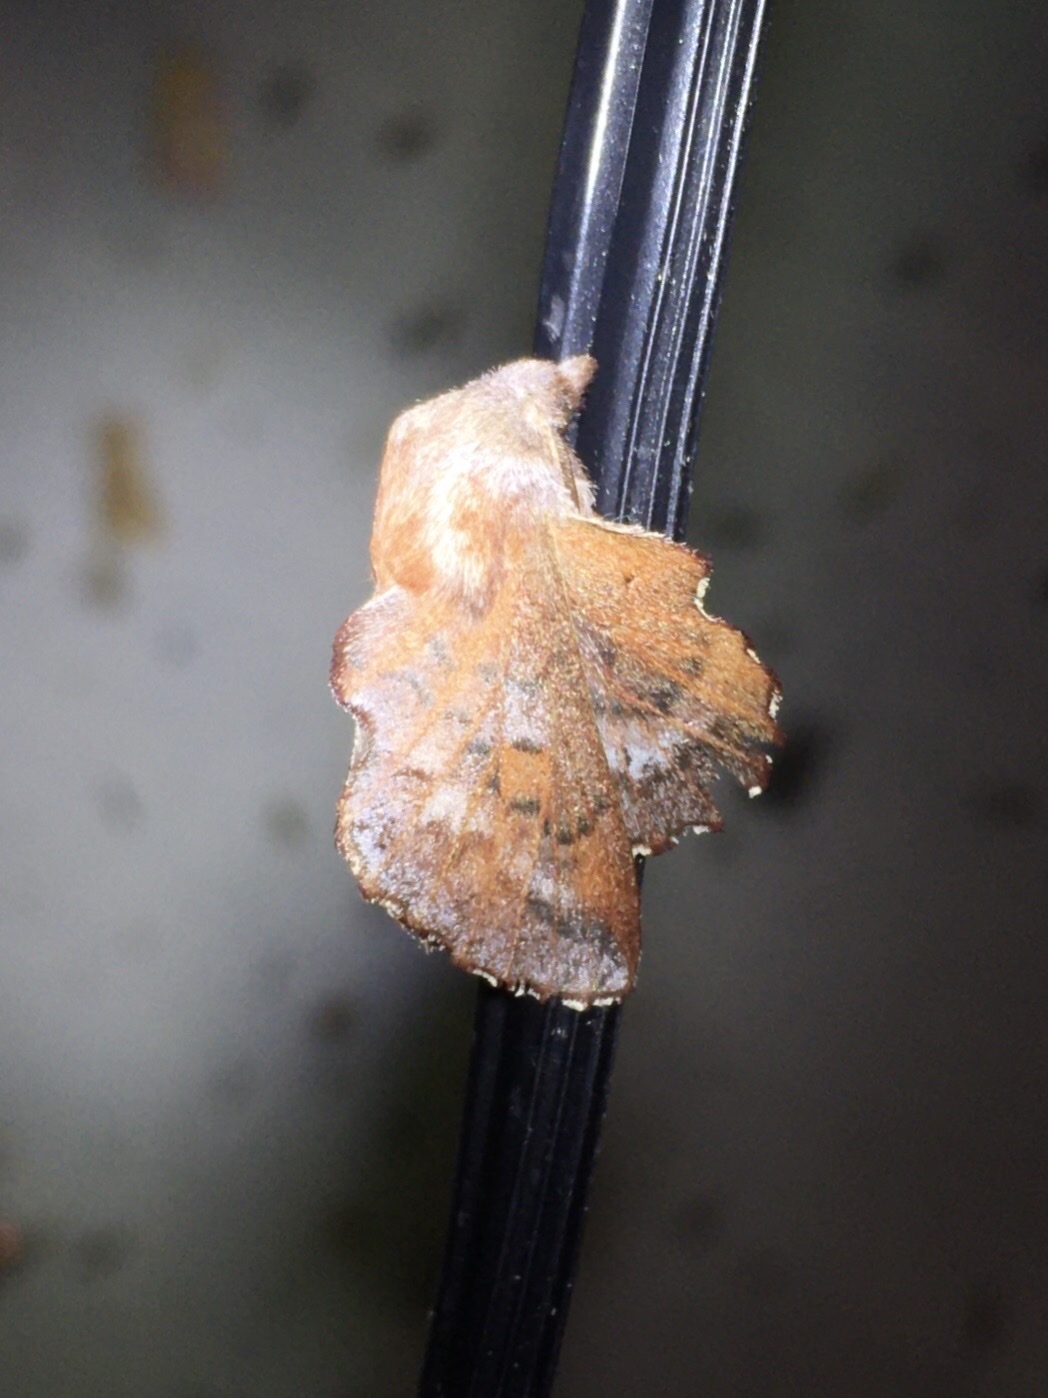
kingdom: Animalia
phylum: Arthropoda
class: Insecta
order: Lepidoptera
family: Lasiocampidae
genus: Phyllodesma
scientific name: Phyllodesma americana
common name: American lappet moth
